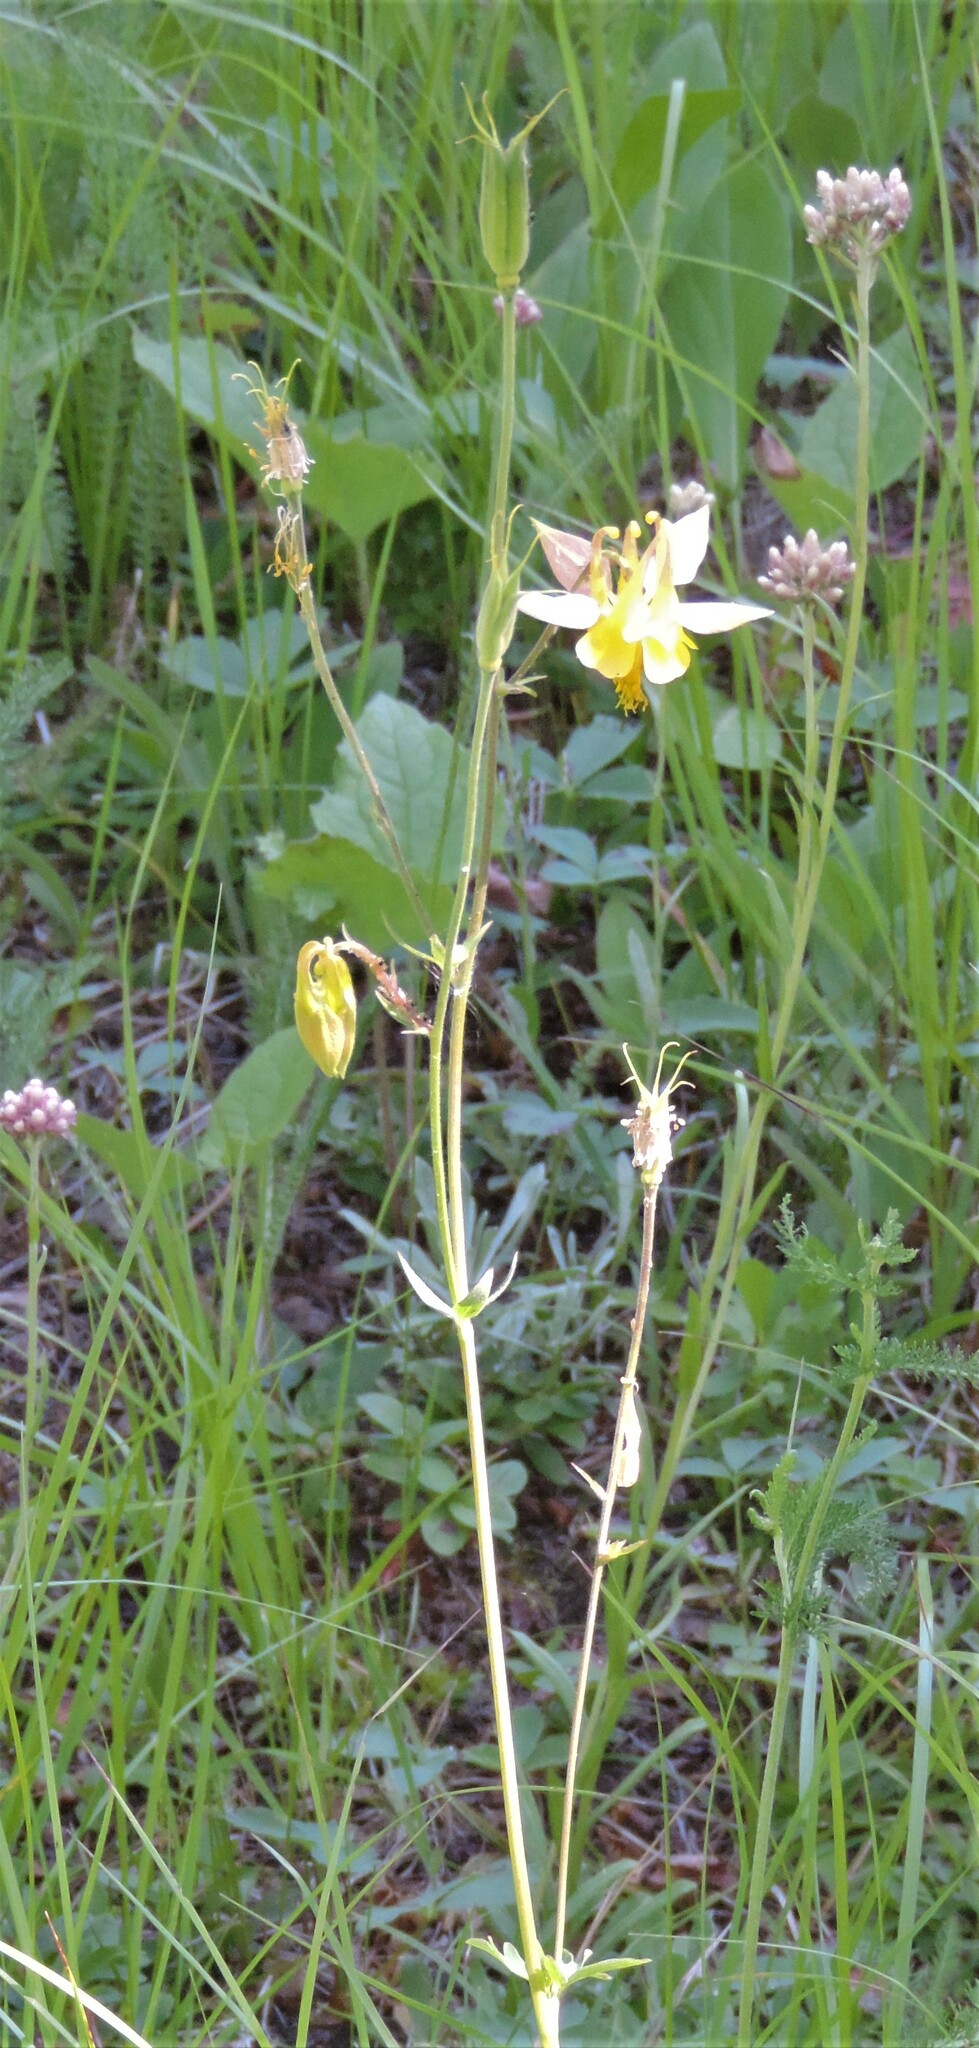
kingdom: Plantae
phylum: Tracheophyta
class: Magnoliopsida
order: Ranunculales
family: Ranunculaceae
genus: Aquilegia
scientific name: Aquilegia flavescens
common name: Yellow columbine
